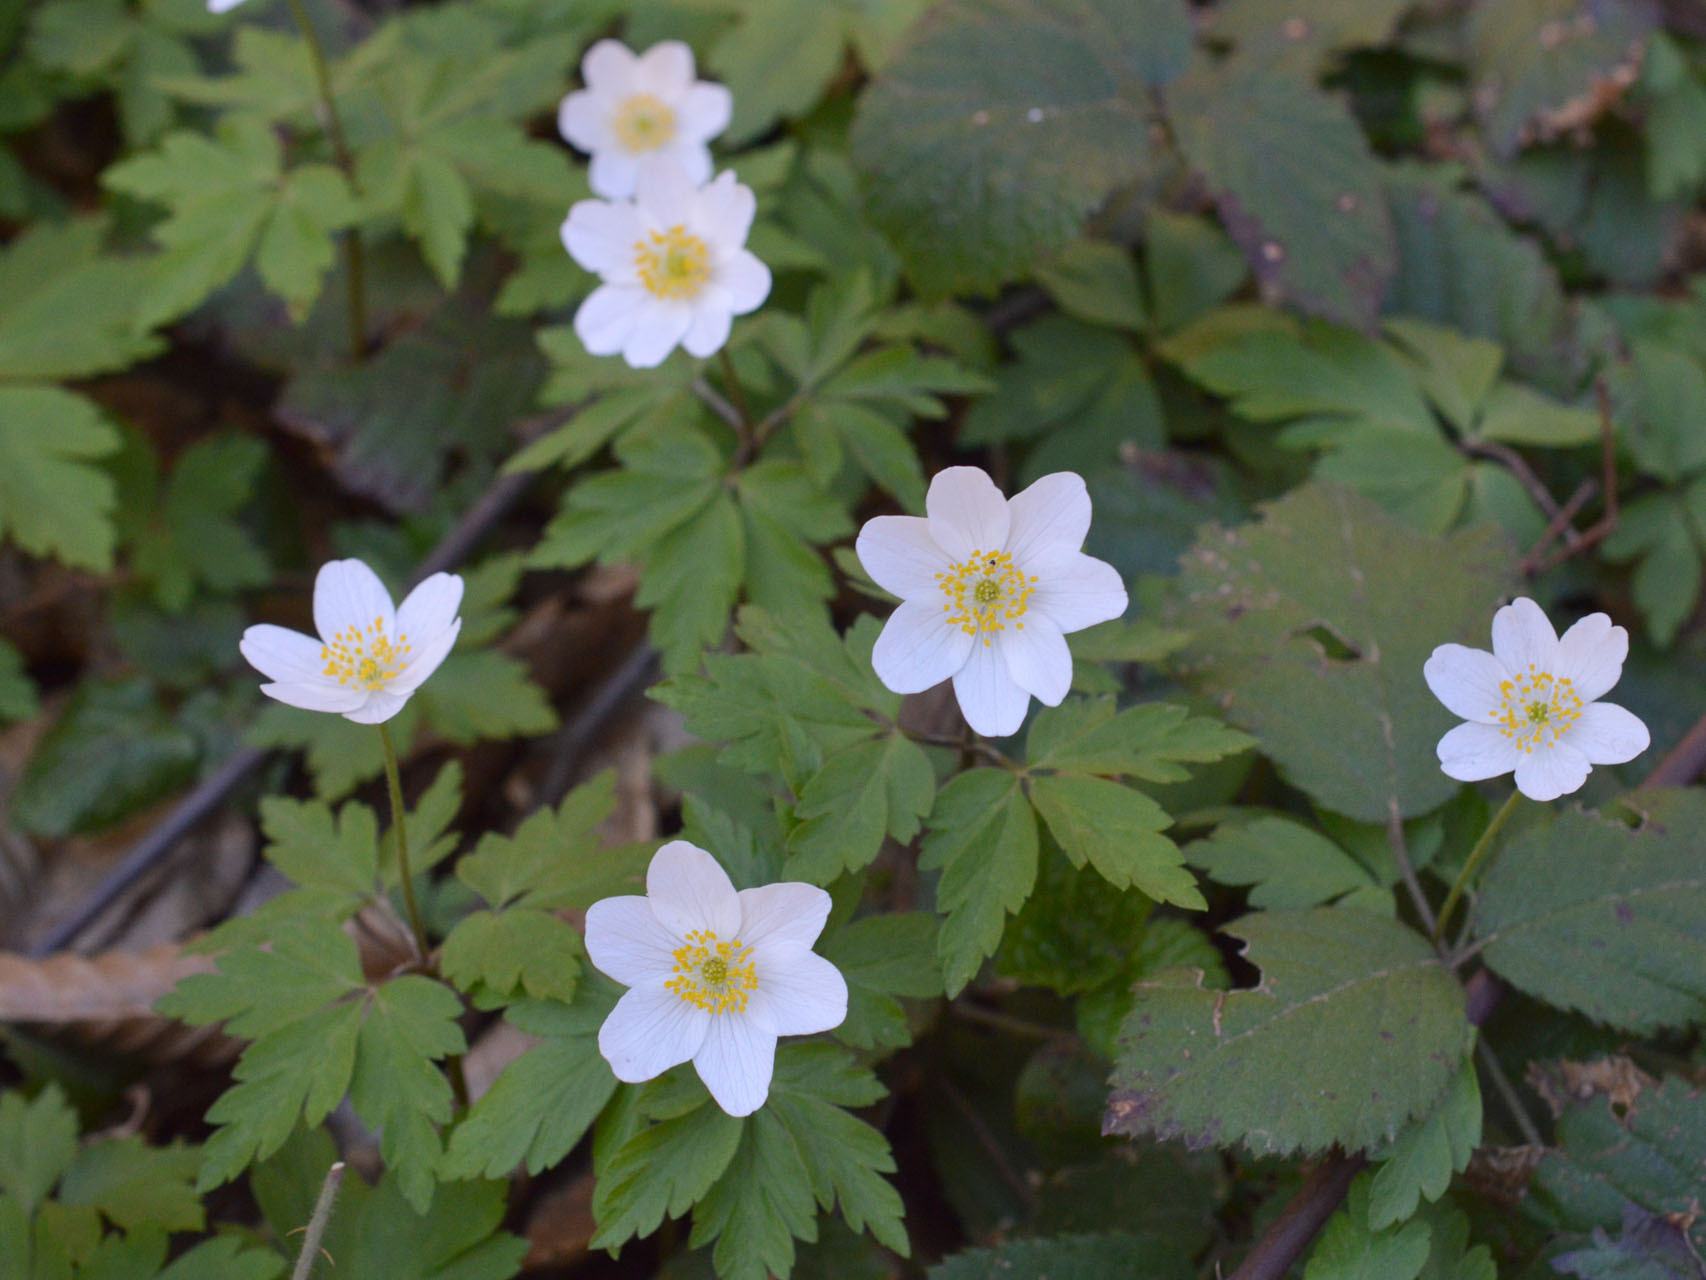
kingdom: Plantae
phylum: Tracheophyta
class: Magnoliopsida
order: Ranunculales
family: Ranunculaceae
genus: Anemone
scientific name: Anemone nemorosa
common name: Wood anemone
